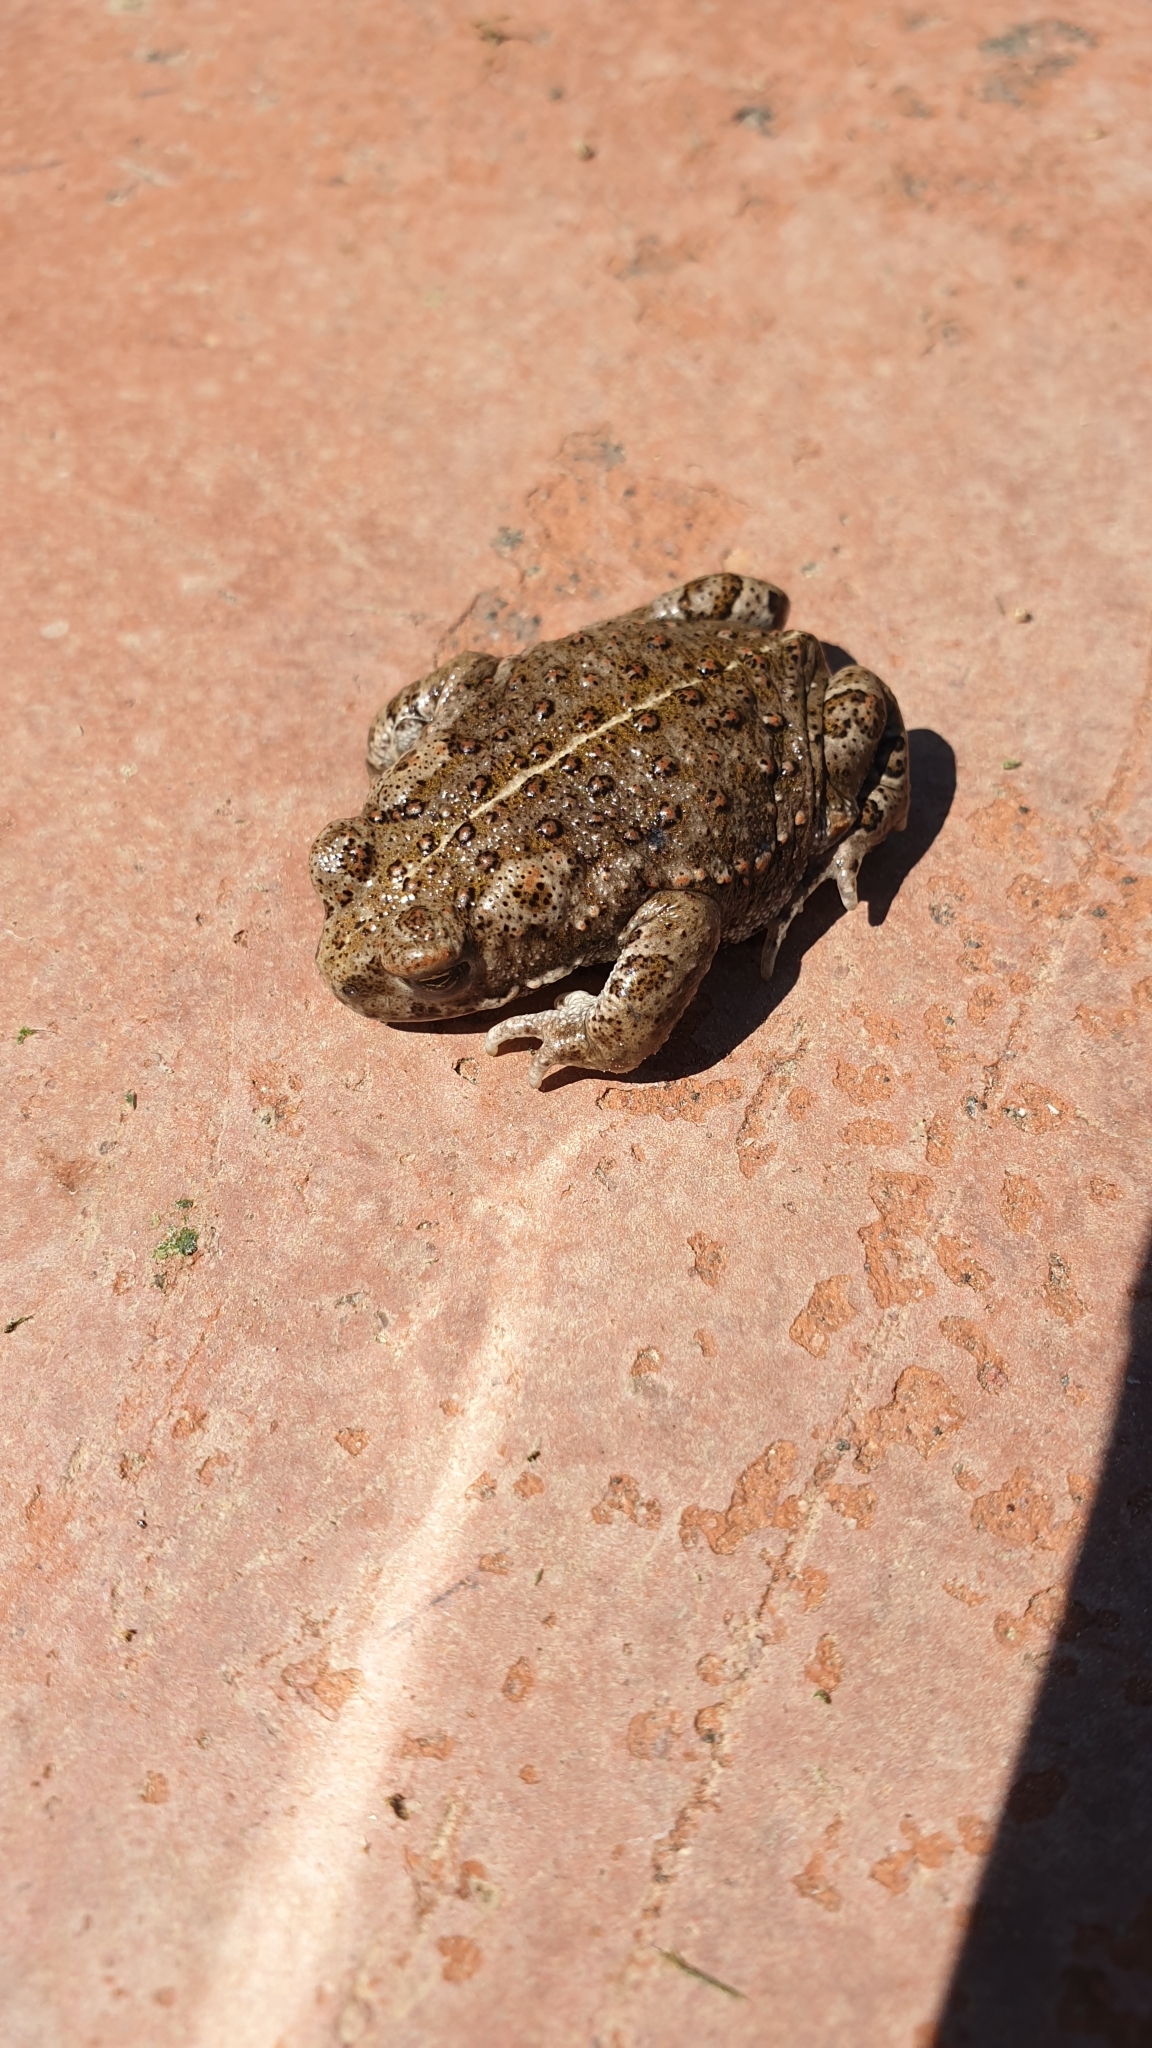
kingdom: Animalia
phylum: Chordata
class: Amphibia
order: Anura
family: Bufonidae
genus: Epidalea
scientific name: Epidalea calamita
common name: Natterjack toad
